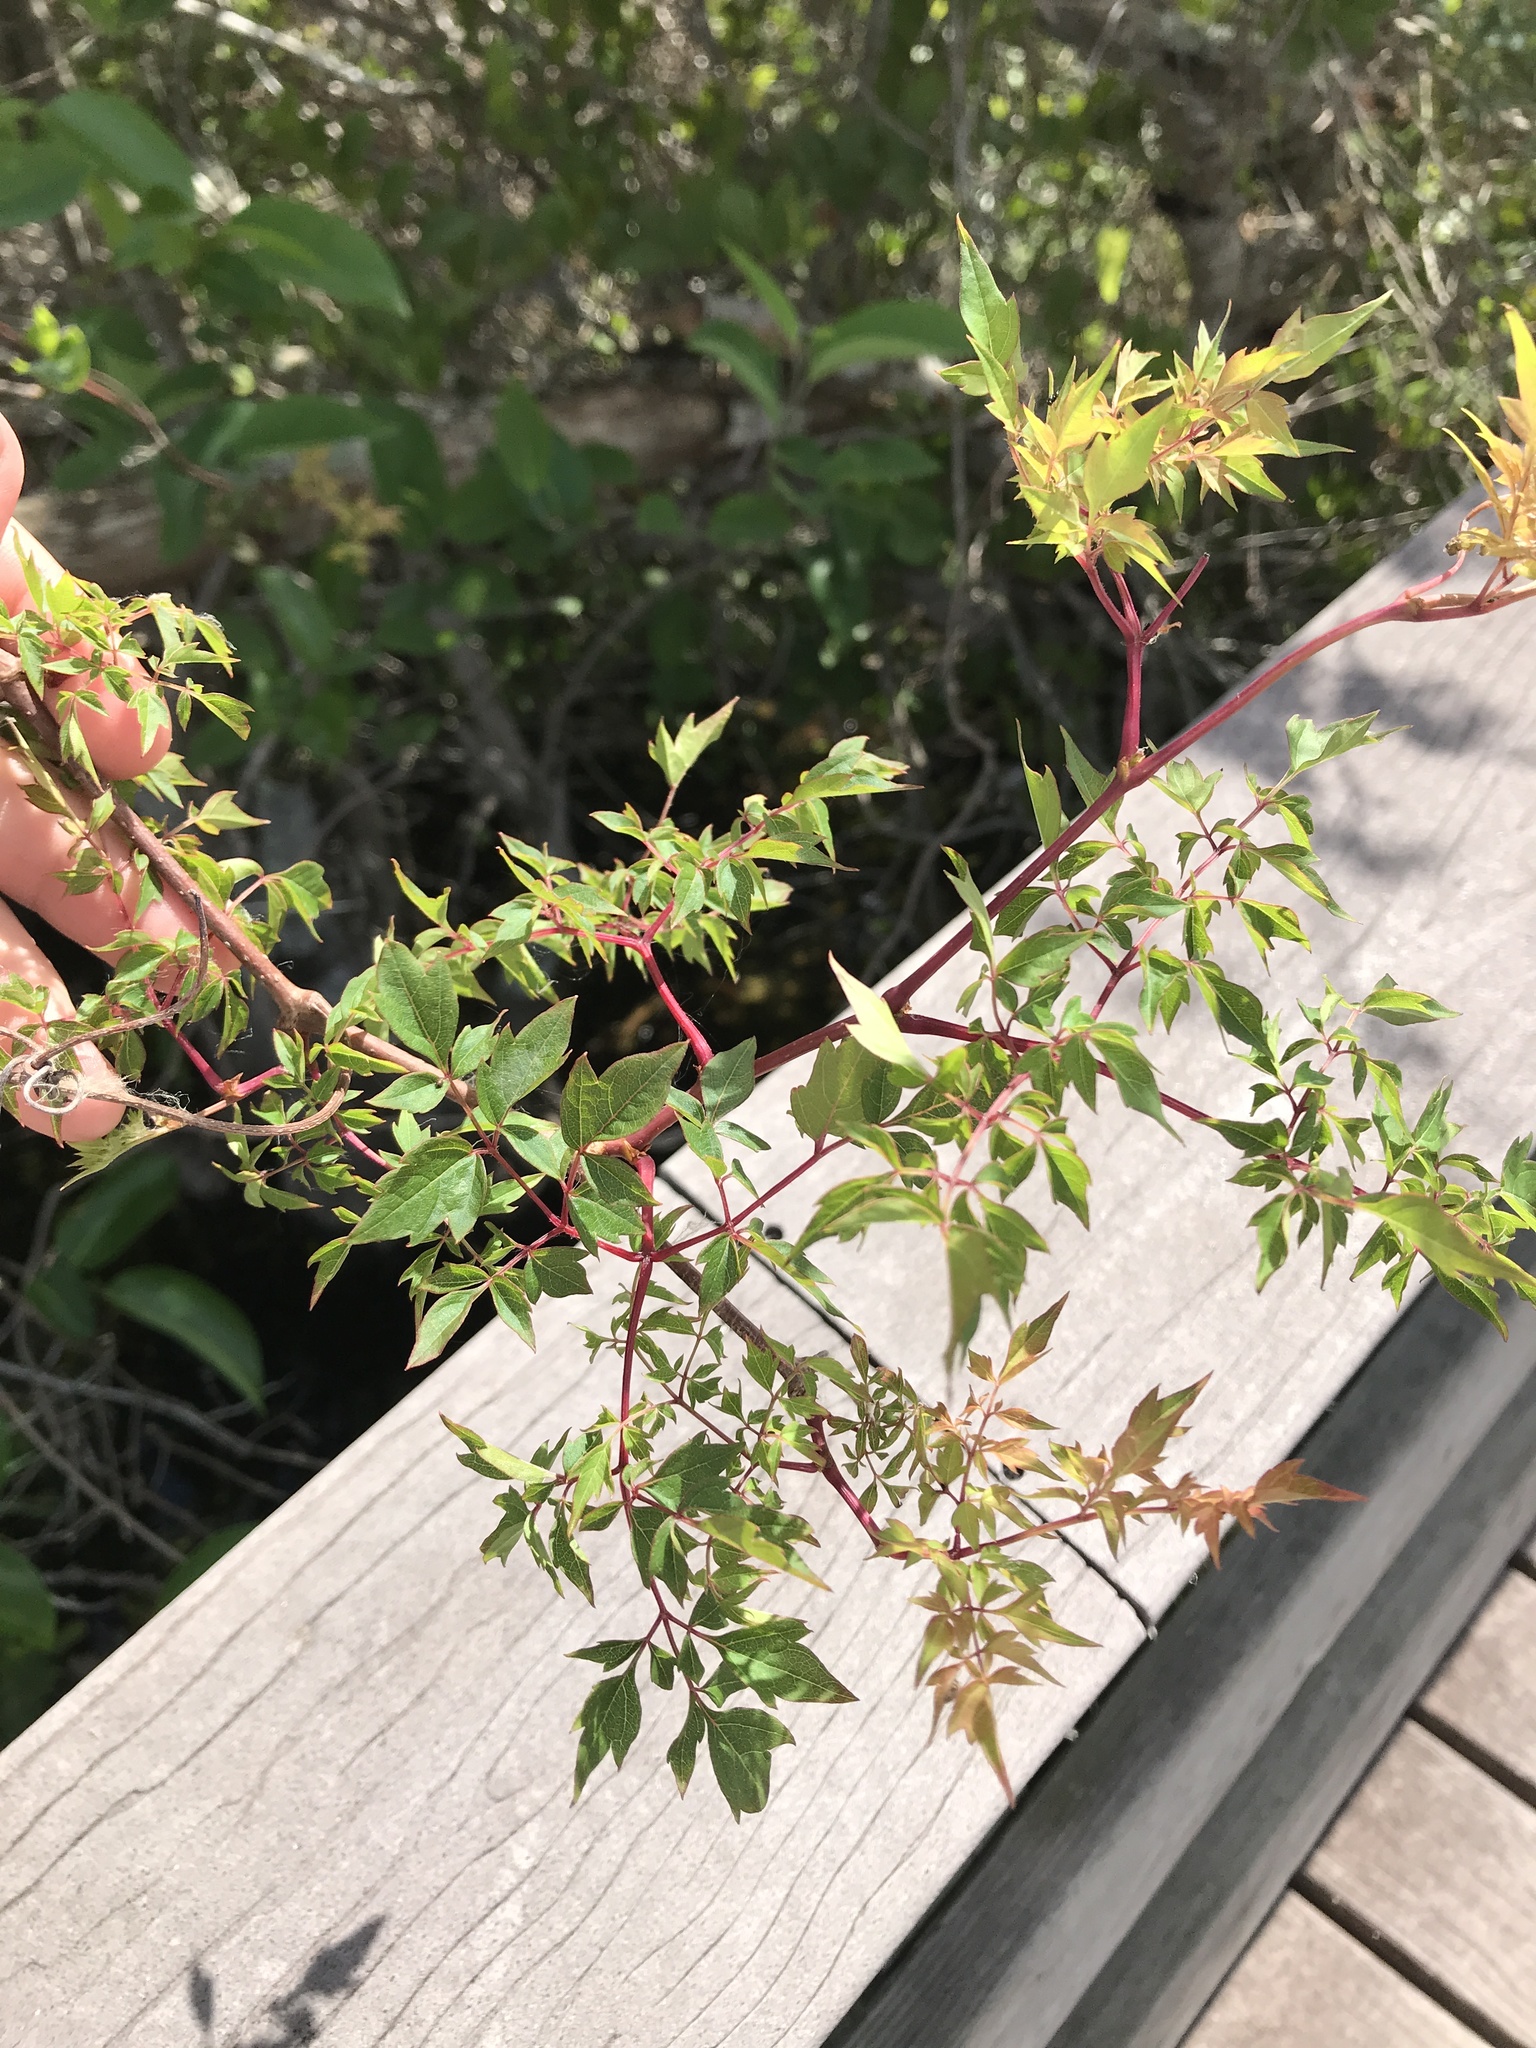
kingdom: Plantae
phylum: Tracheophyta
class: Magnoliopsida
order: Vitales
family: Vitaceae
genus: Nekemias
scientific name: Nekemias arborea
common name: Peppervine
